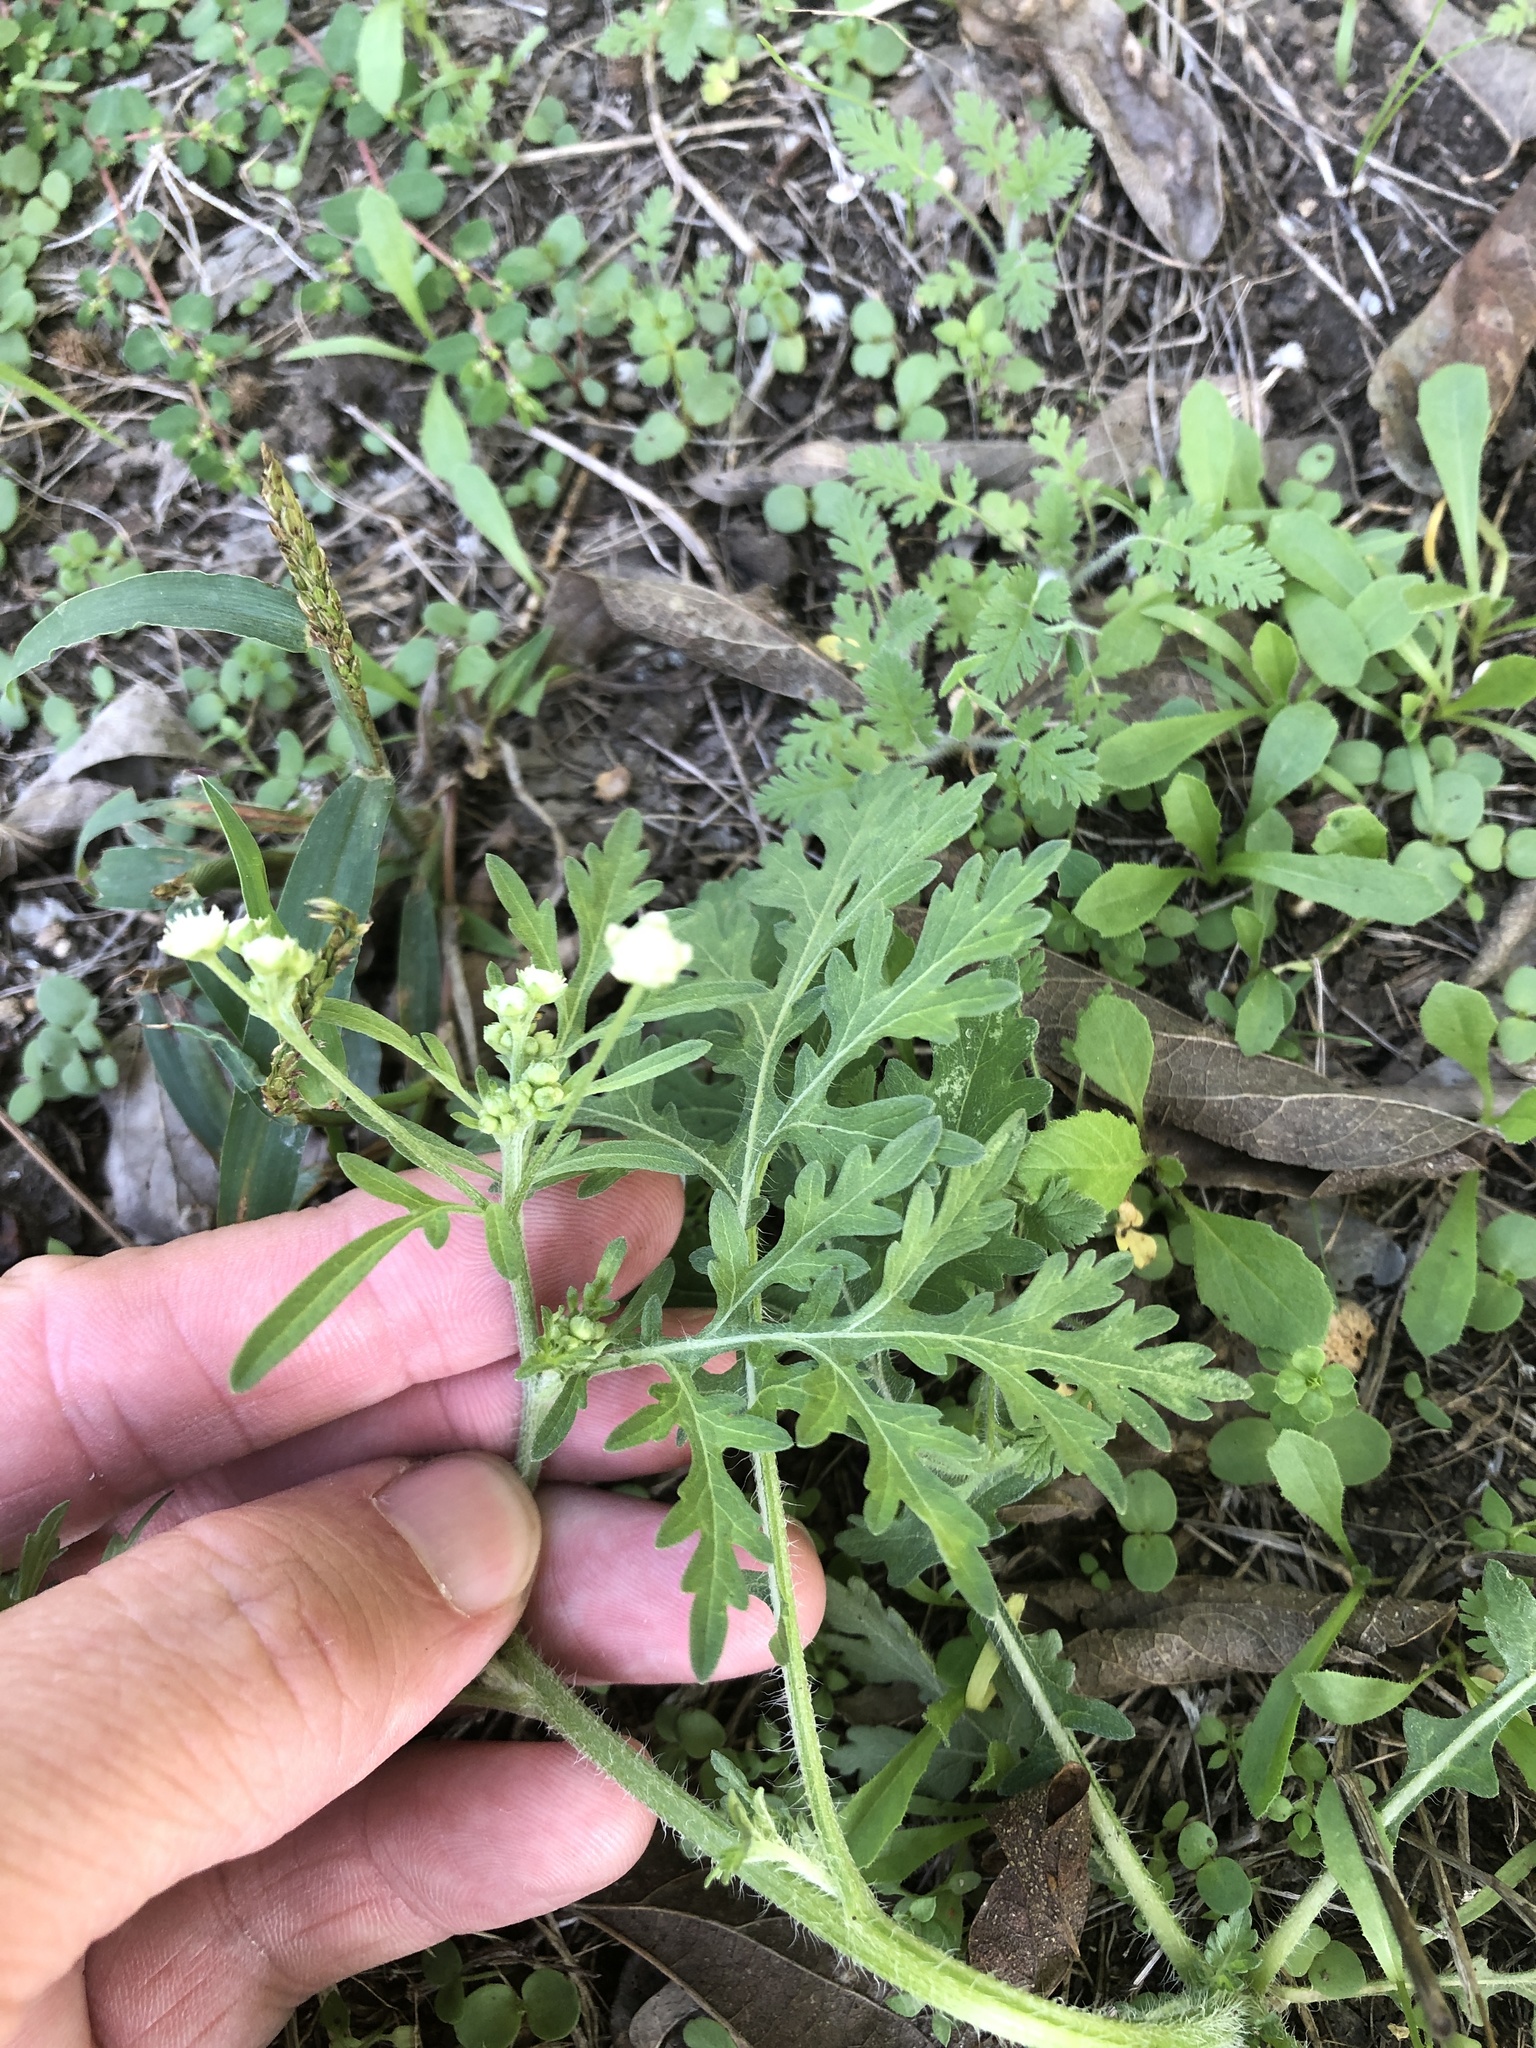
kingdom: Plantae
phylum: Tracheophyta
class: Magnoliopsida
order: Asterales
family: Asteraceae
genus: Parthenium
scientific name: Parthenium hysterophorus
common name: Santa maria feverfew
